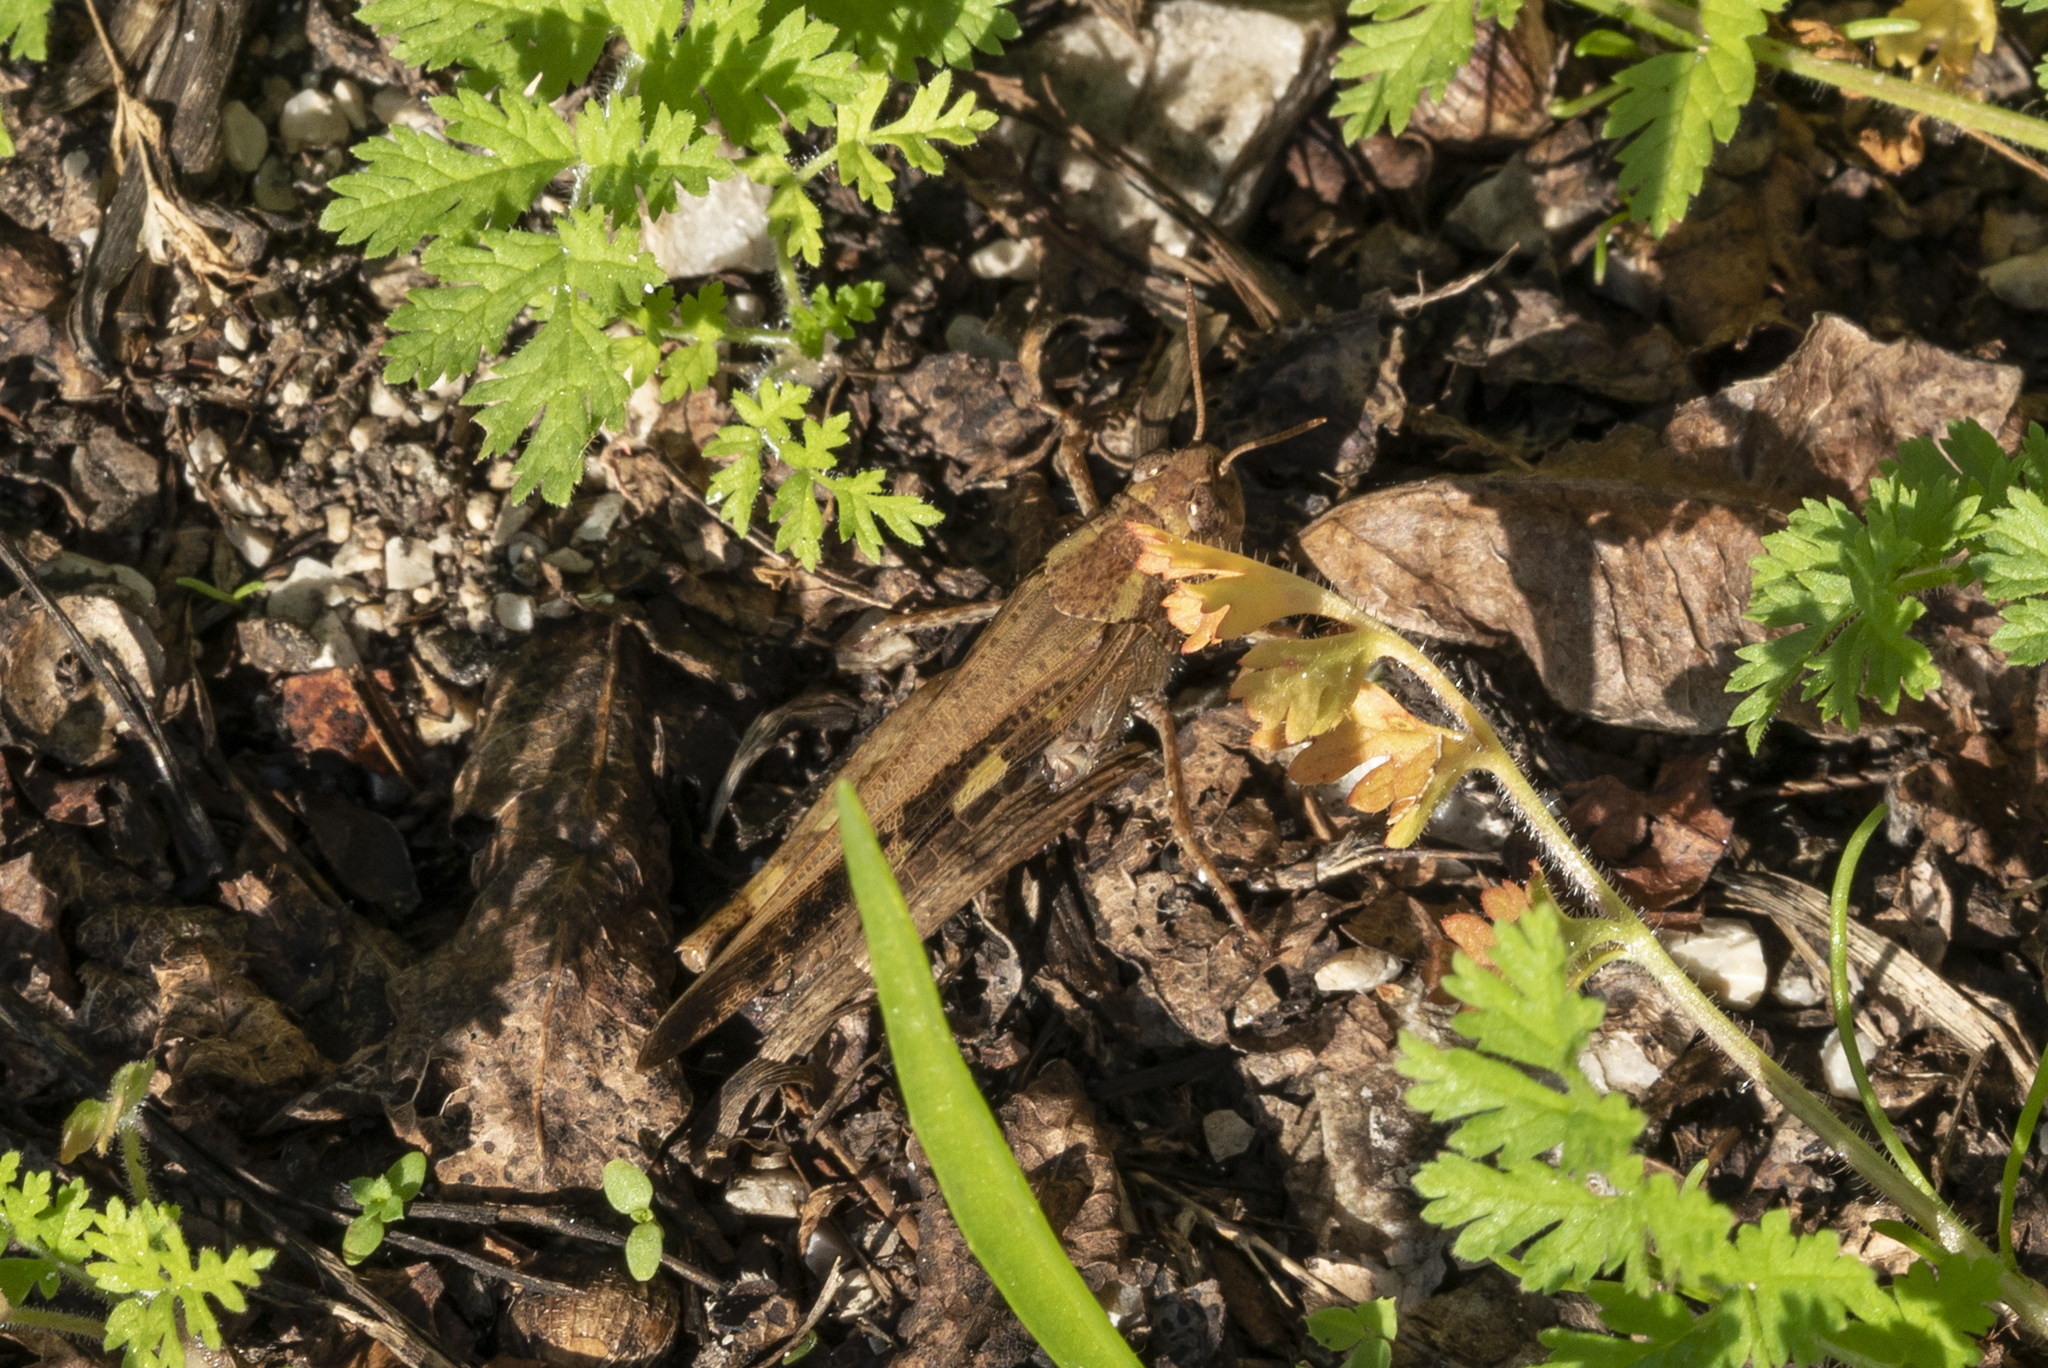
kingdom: Animalia
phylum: Arthropoda
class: Insecta
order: Orthoptera
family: Acrididae
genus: Aiolopus
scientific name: Aiolopus strepens
